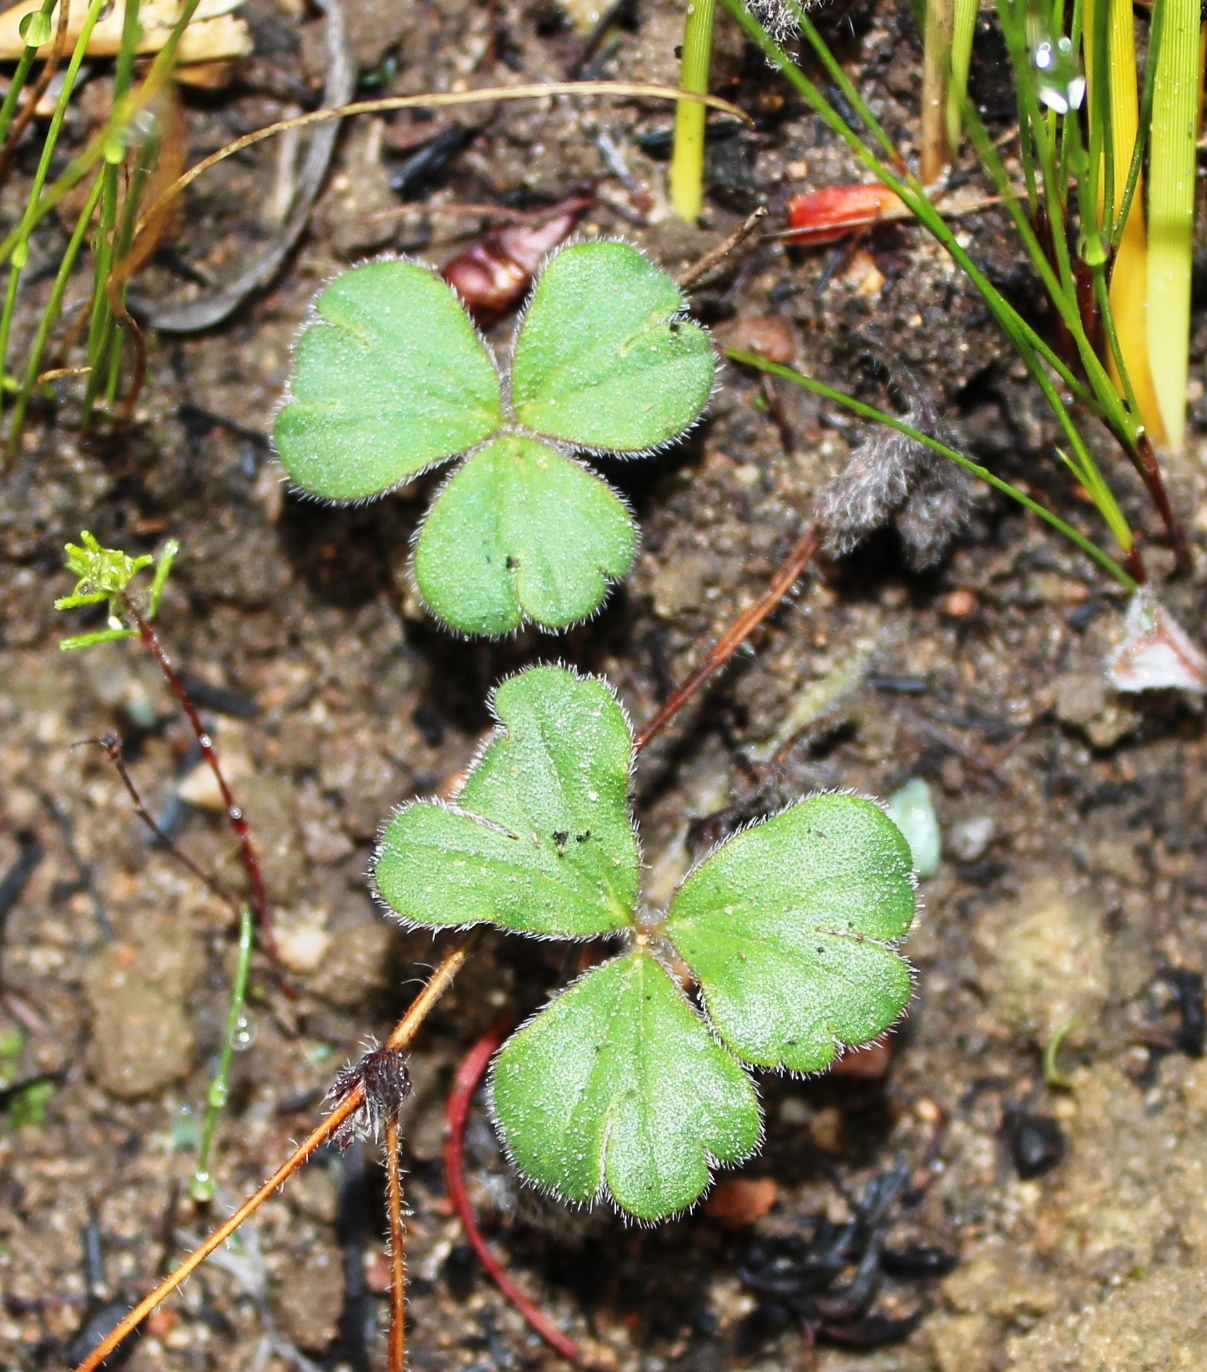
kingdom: Plantae
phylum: Tracheophyta
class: Magnoliopsida
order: Geraniales
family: Geraniaceae
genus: Pelargonium
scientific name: Pelargonium ternifolium
